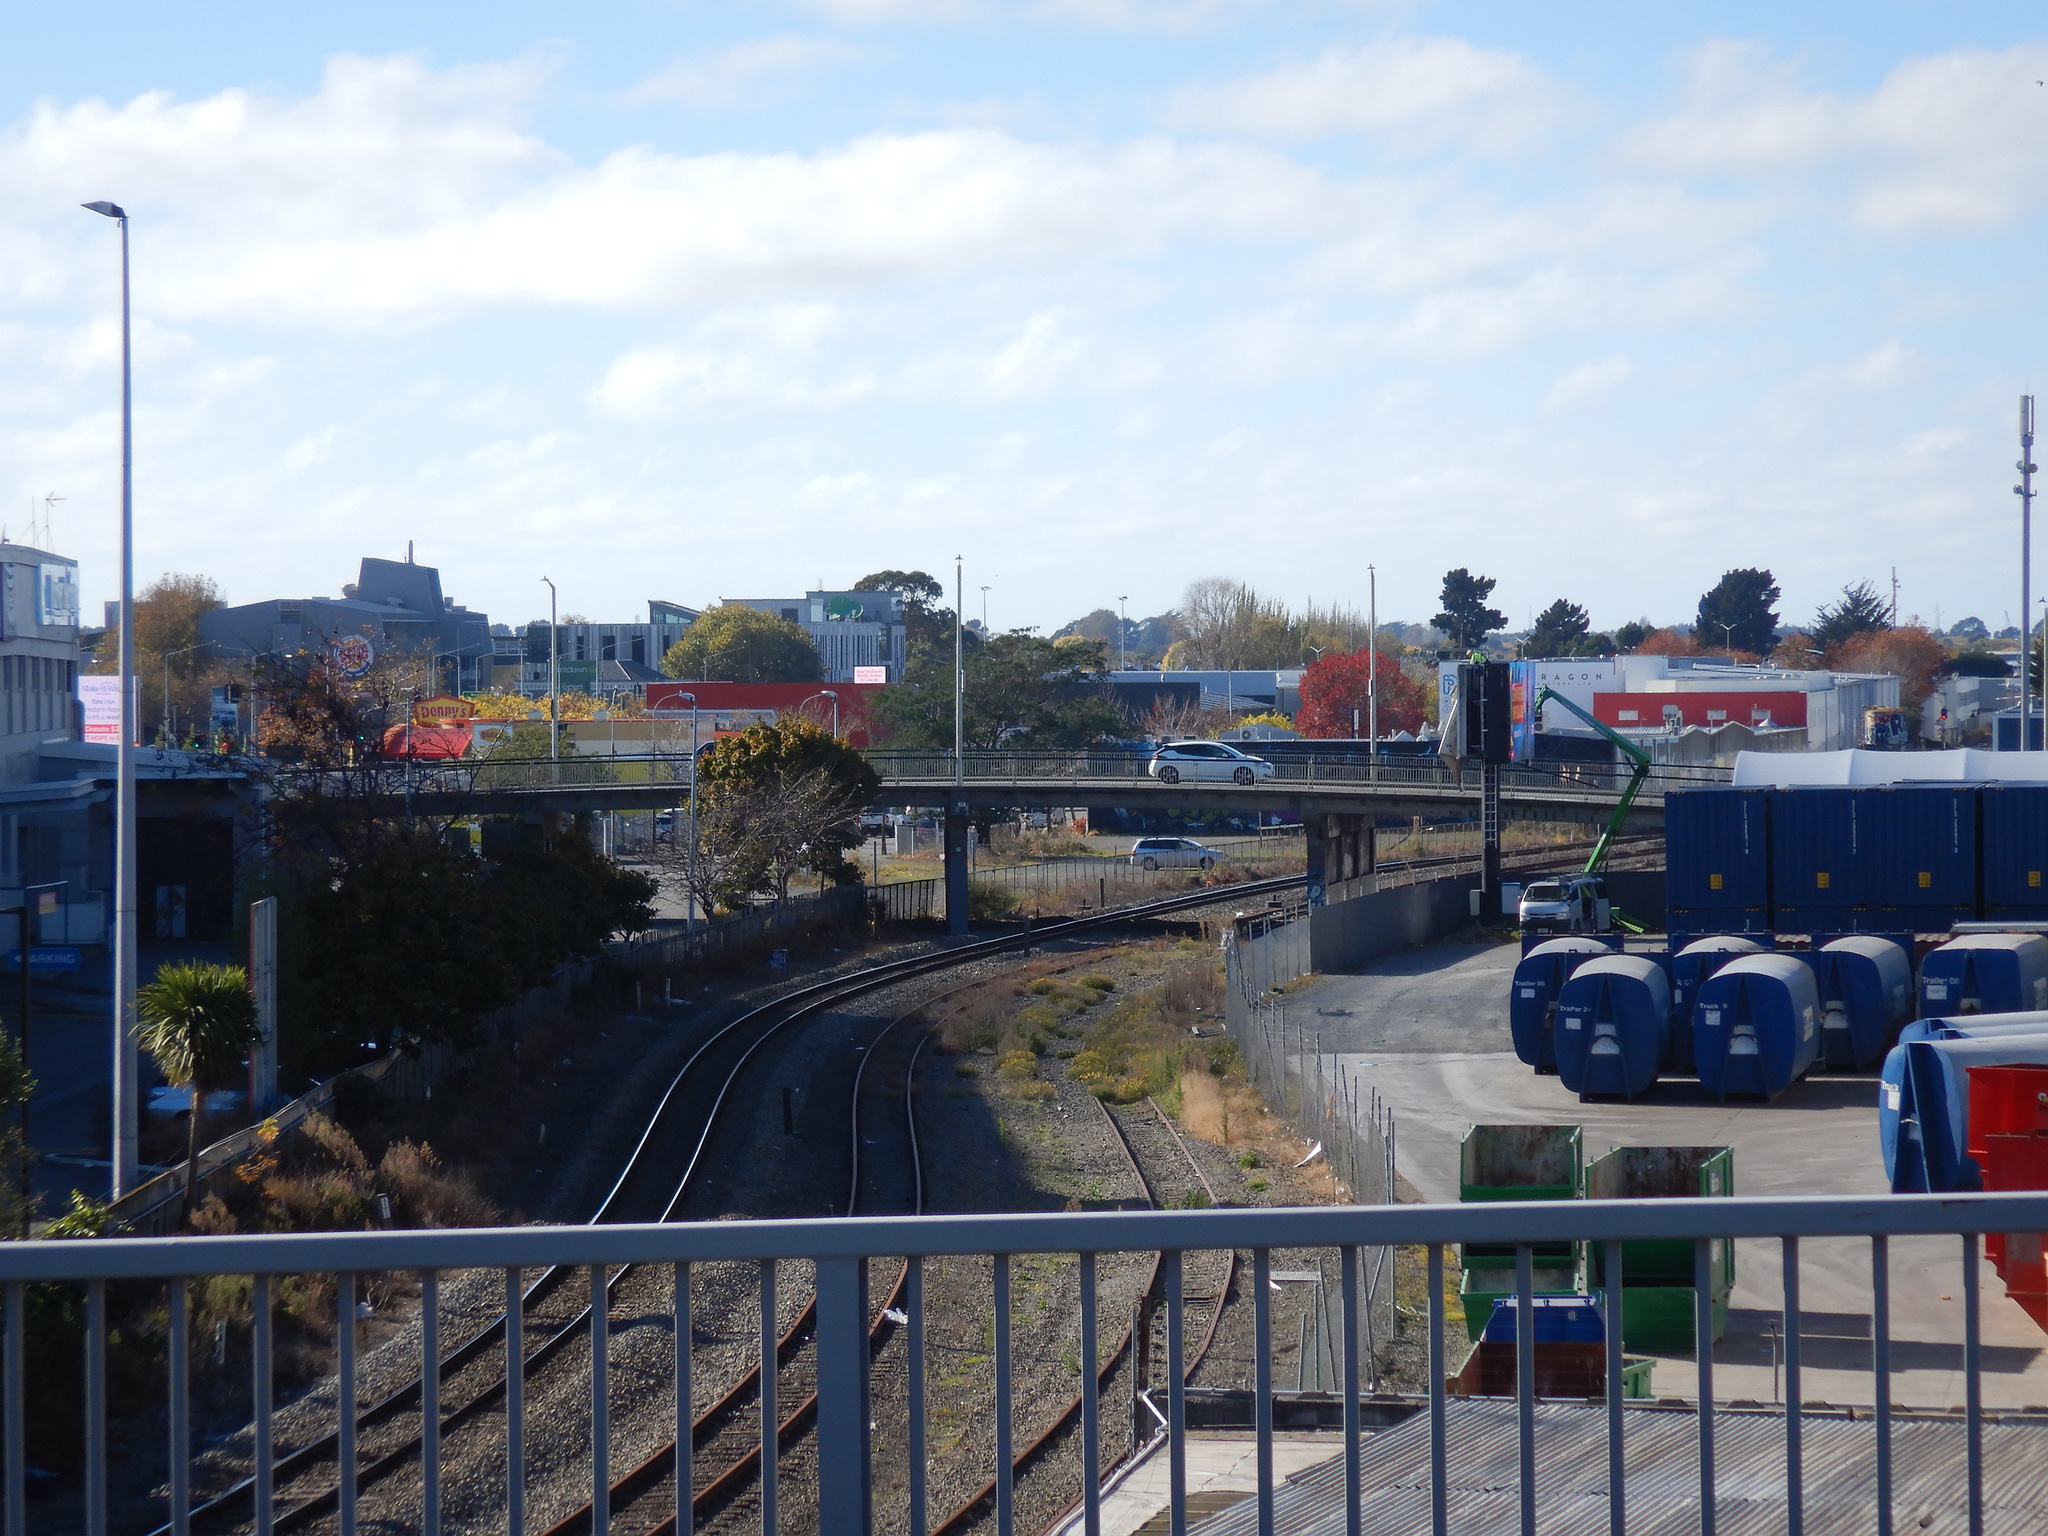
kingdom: Plantae
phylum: Tracheophyta
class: Magnoliopsida
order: Asterales
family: Asteraceae
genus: Senecio
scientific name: Senecio skirrhodon
